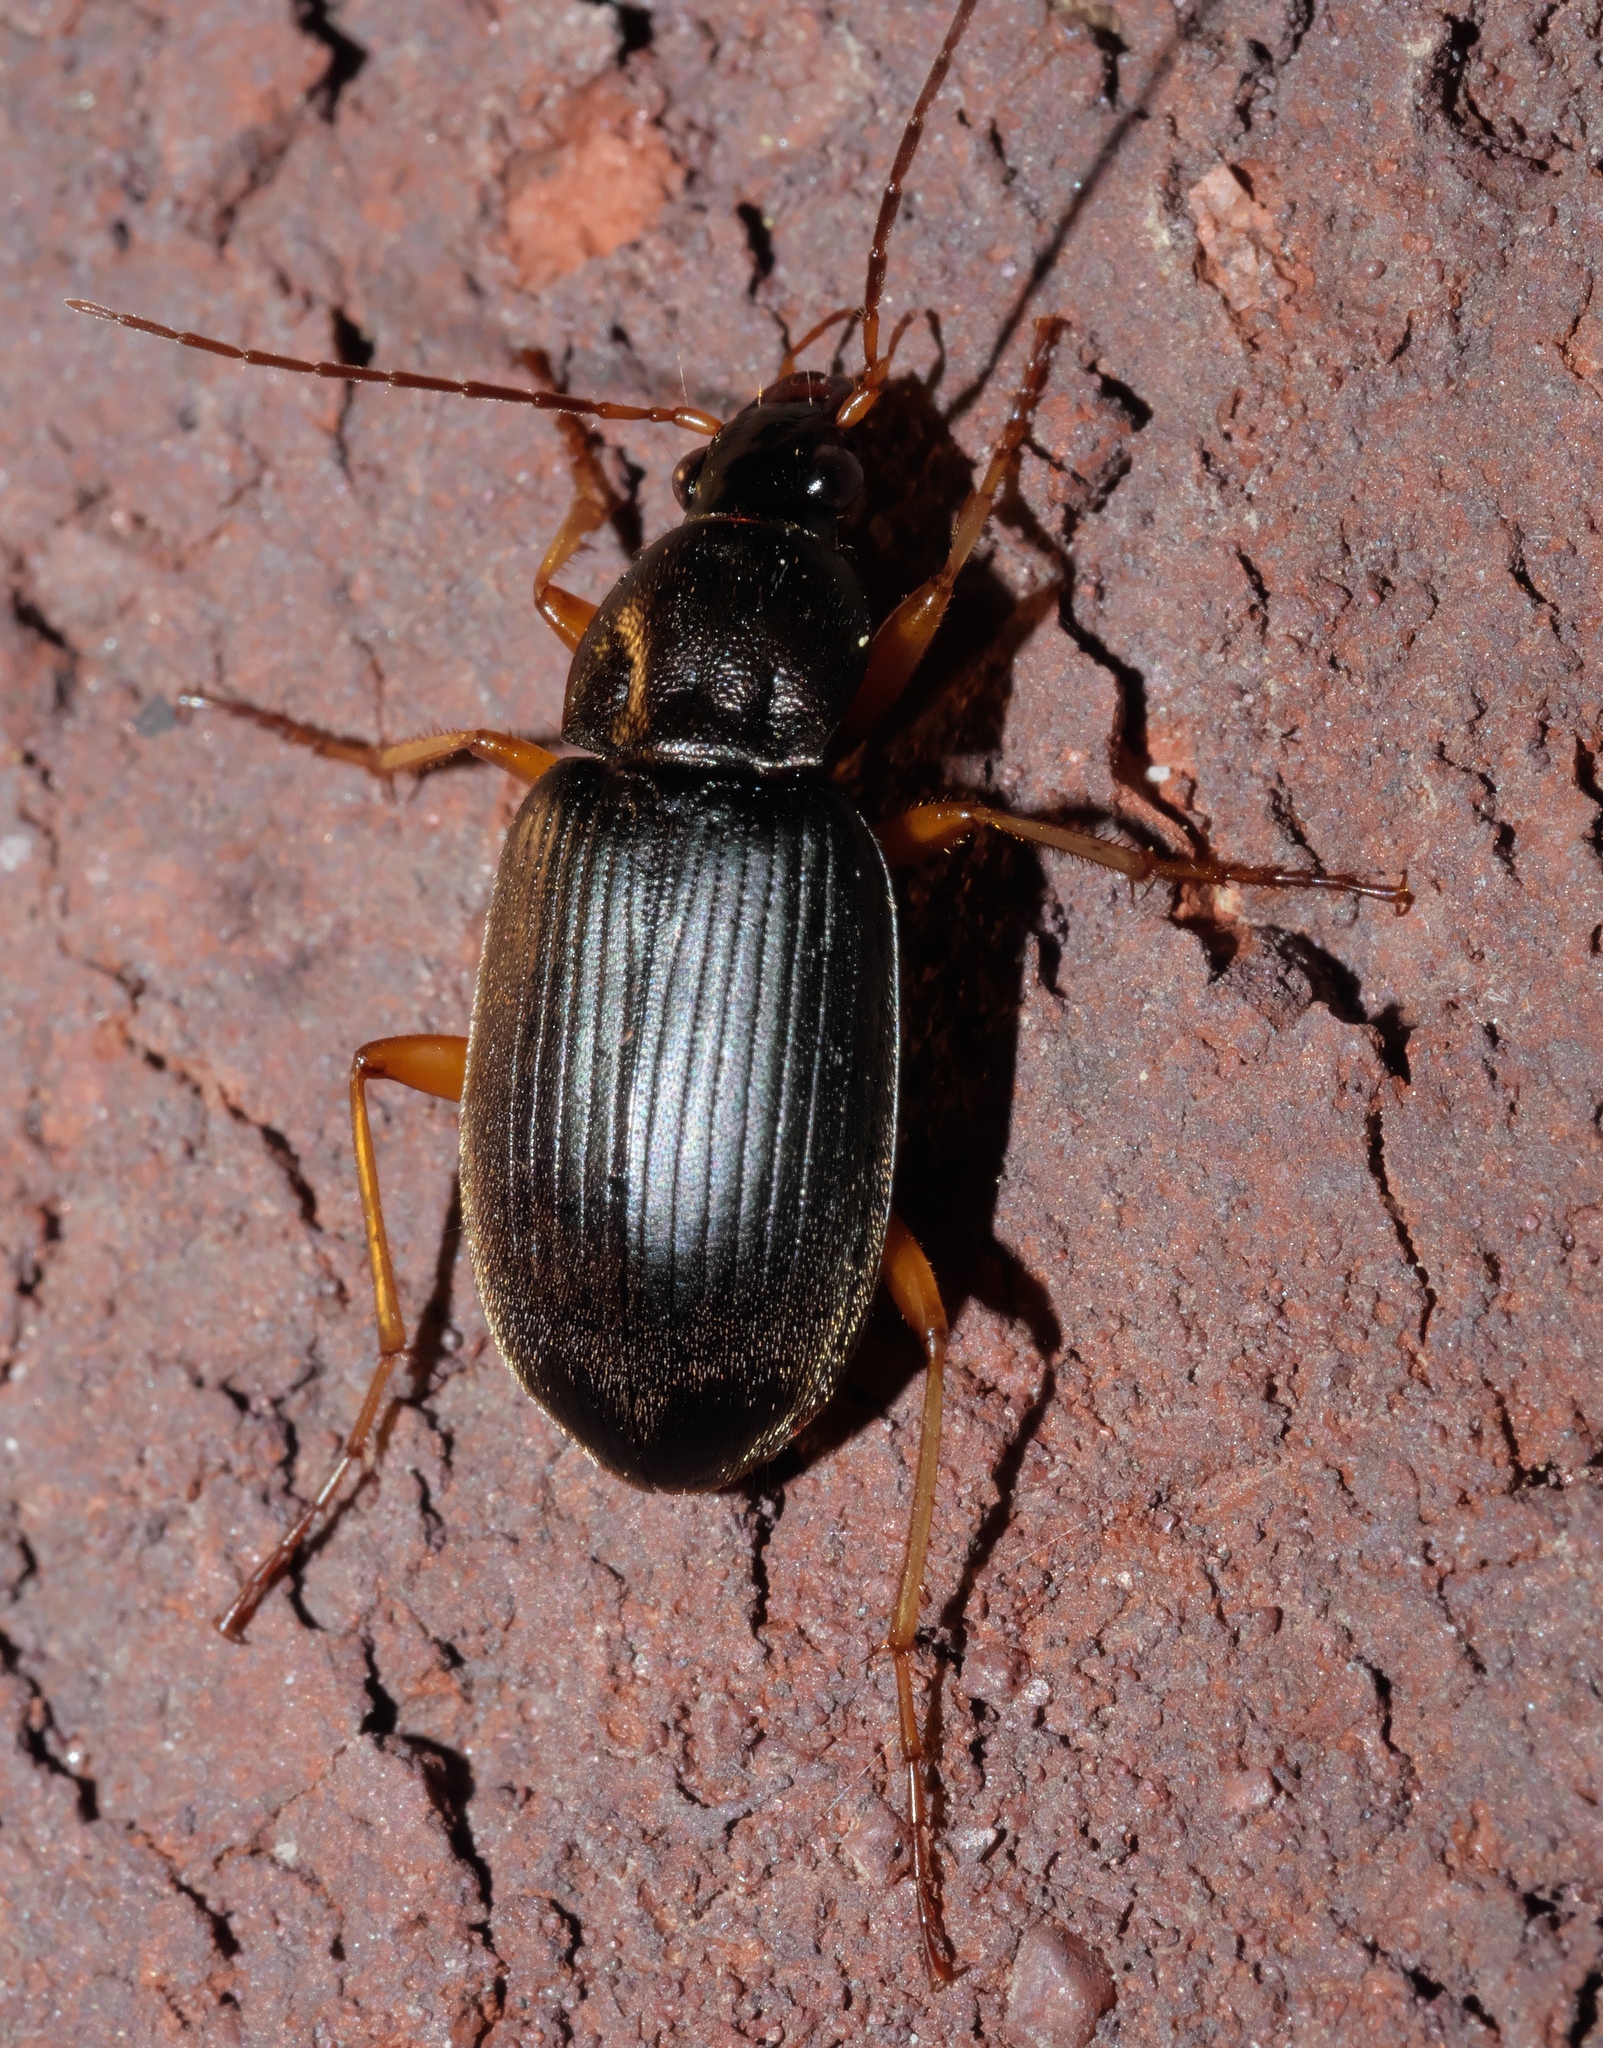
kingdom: Animalia
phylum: Arthropoda
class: Insecta
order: Coleoptera
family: Carabidae
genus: Chlaenius
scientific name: Chlaenius tricolor
